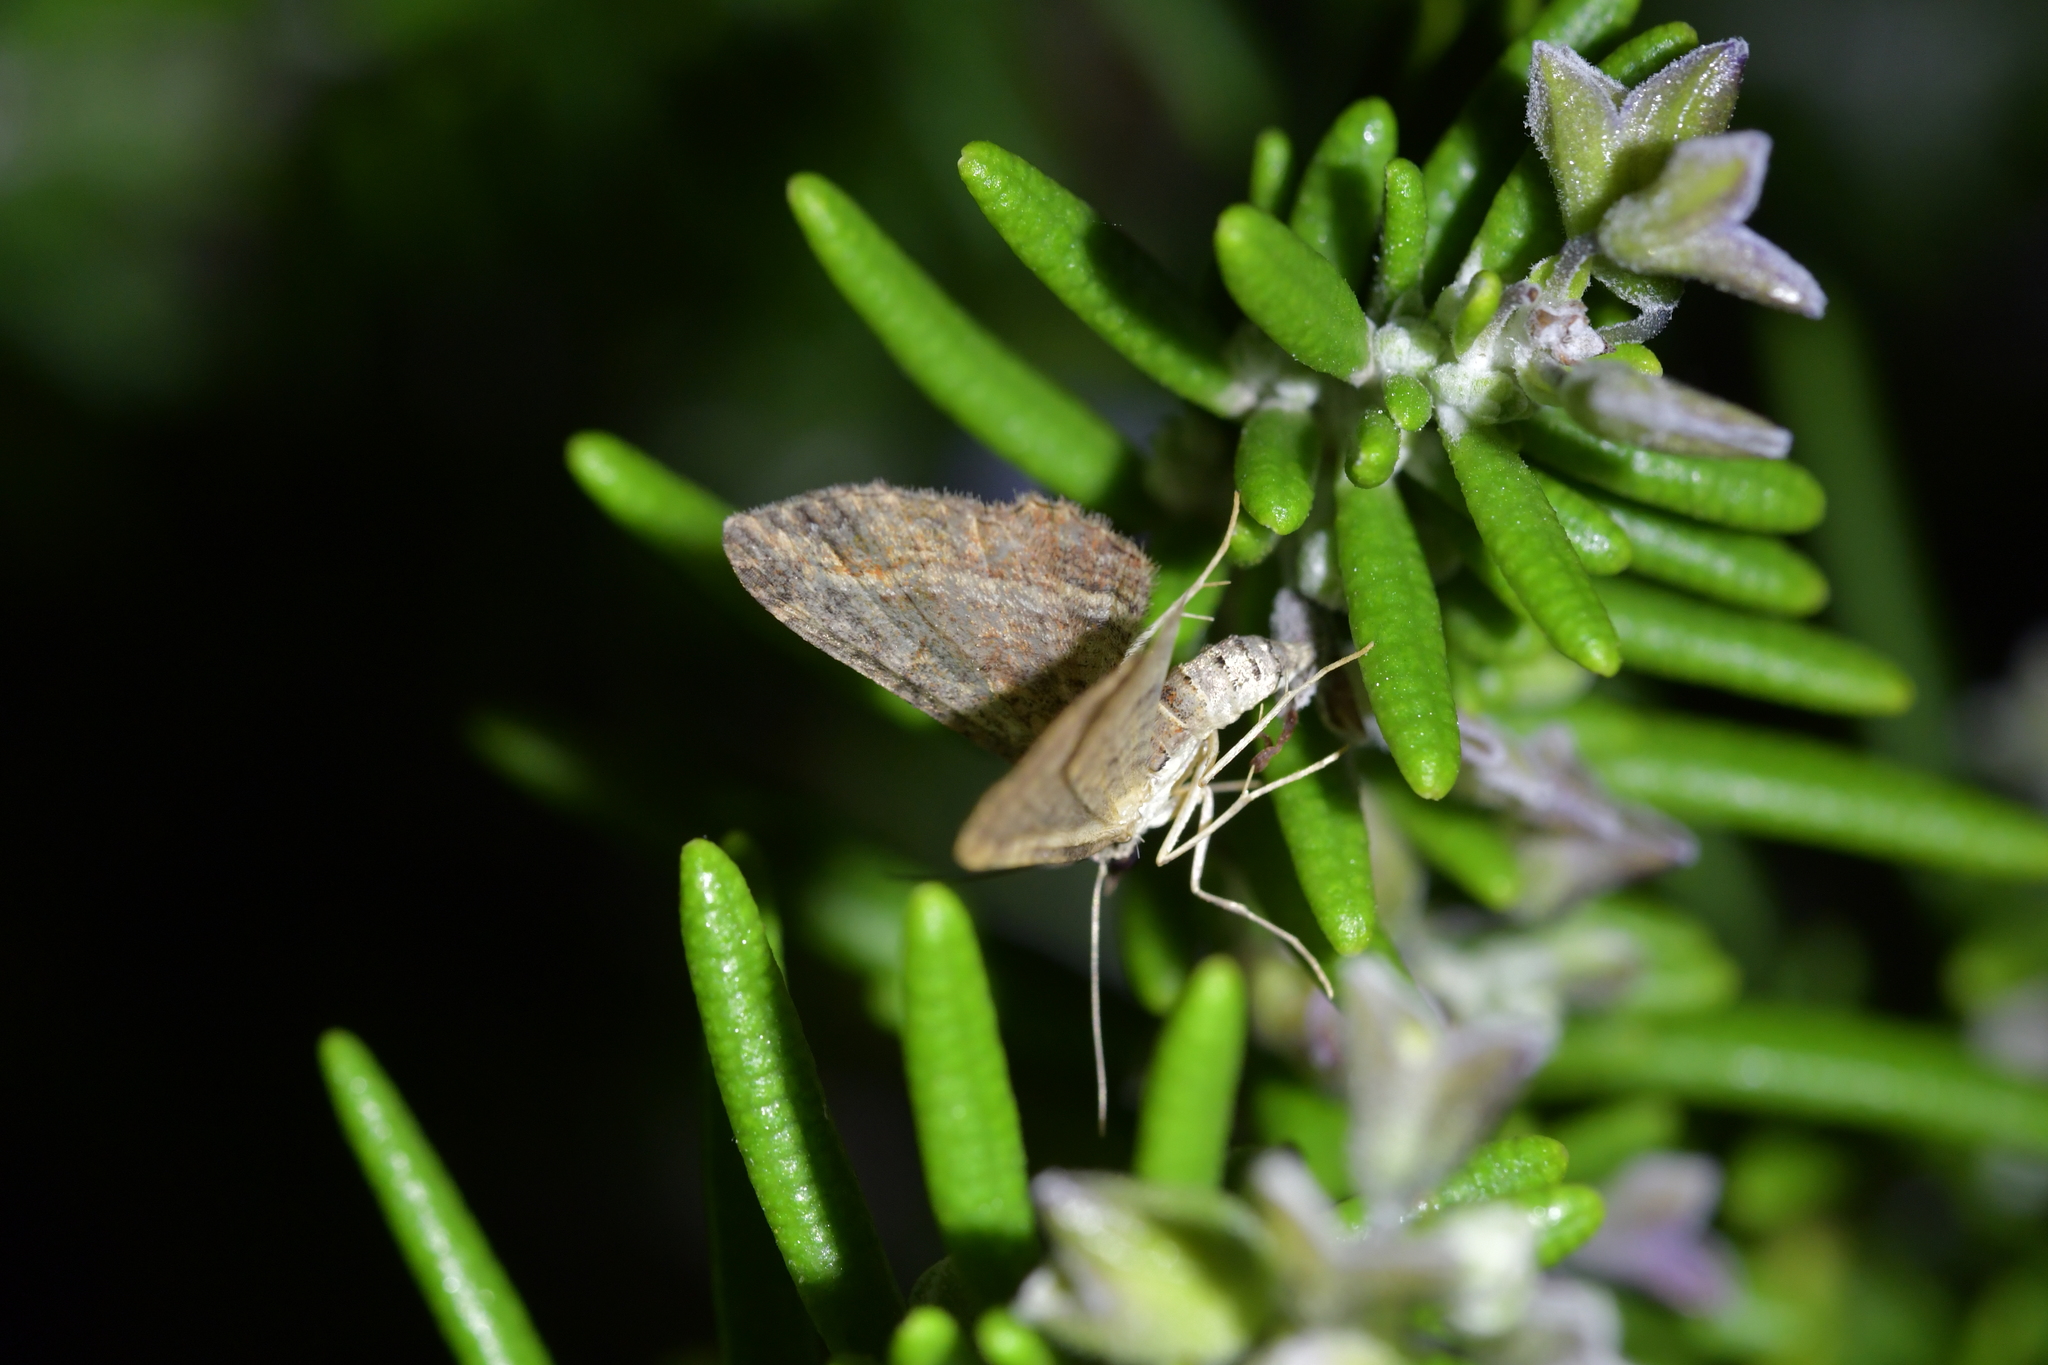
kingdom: Animalia
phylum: Arthropoda
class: Insecta
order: Lepidoptera
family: Geometridae
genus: Chloroclystis
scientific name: Chloroclystis filata
